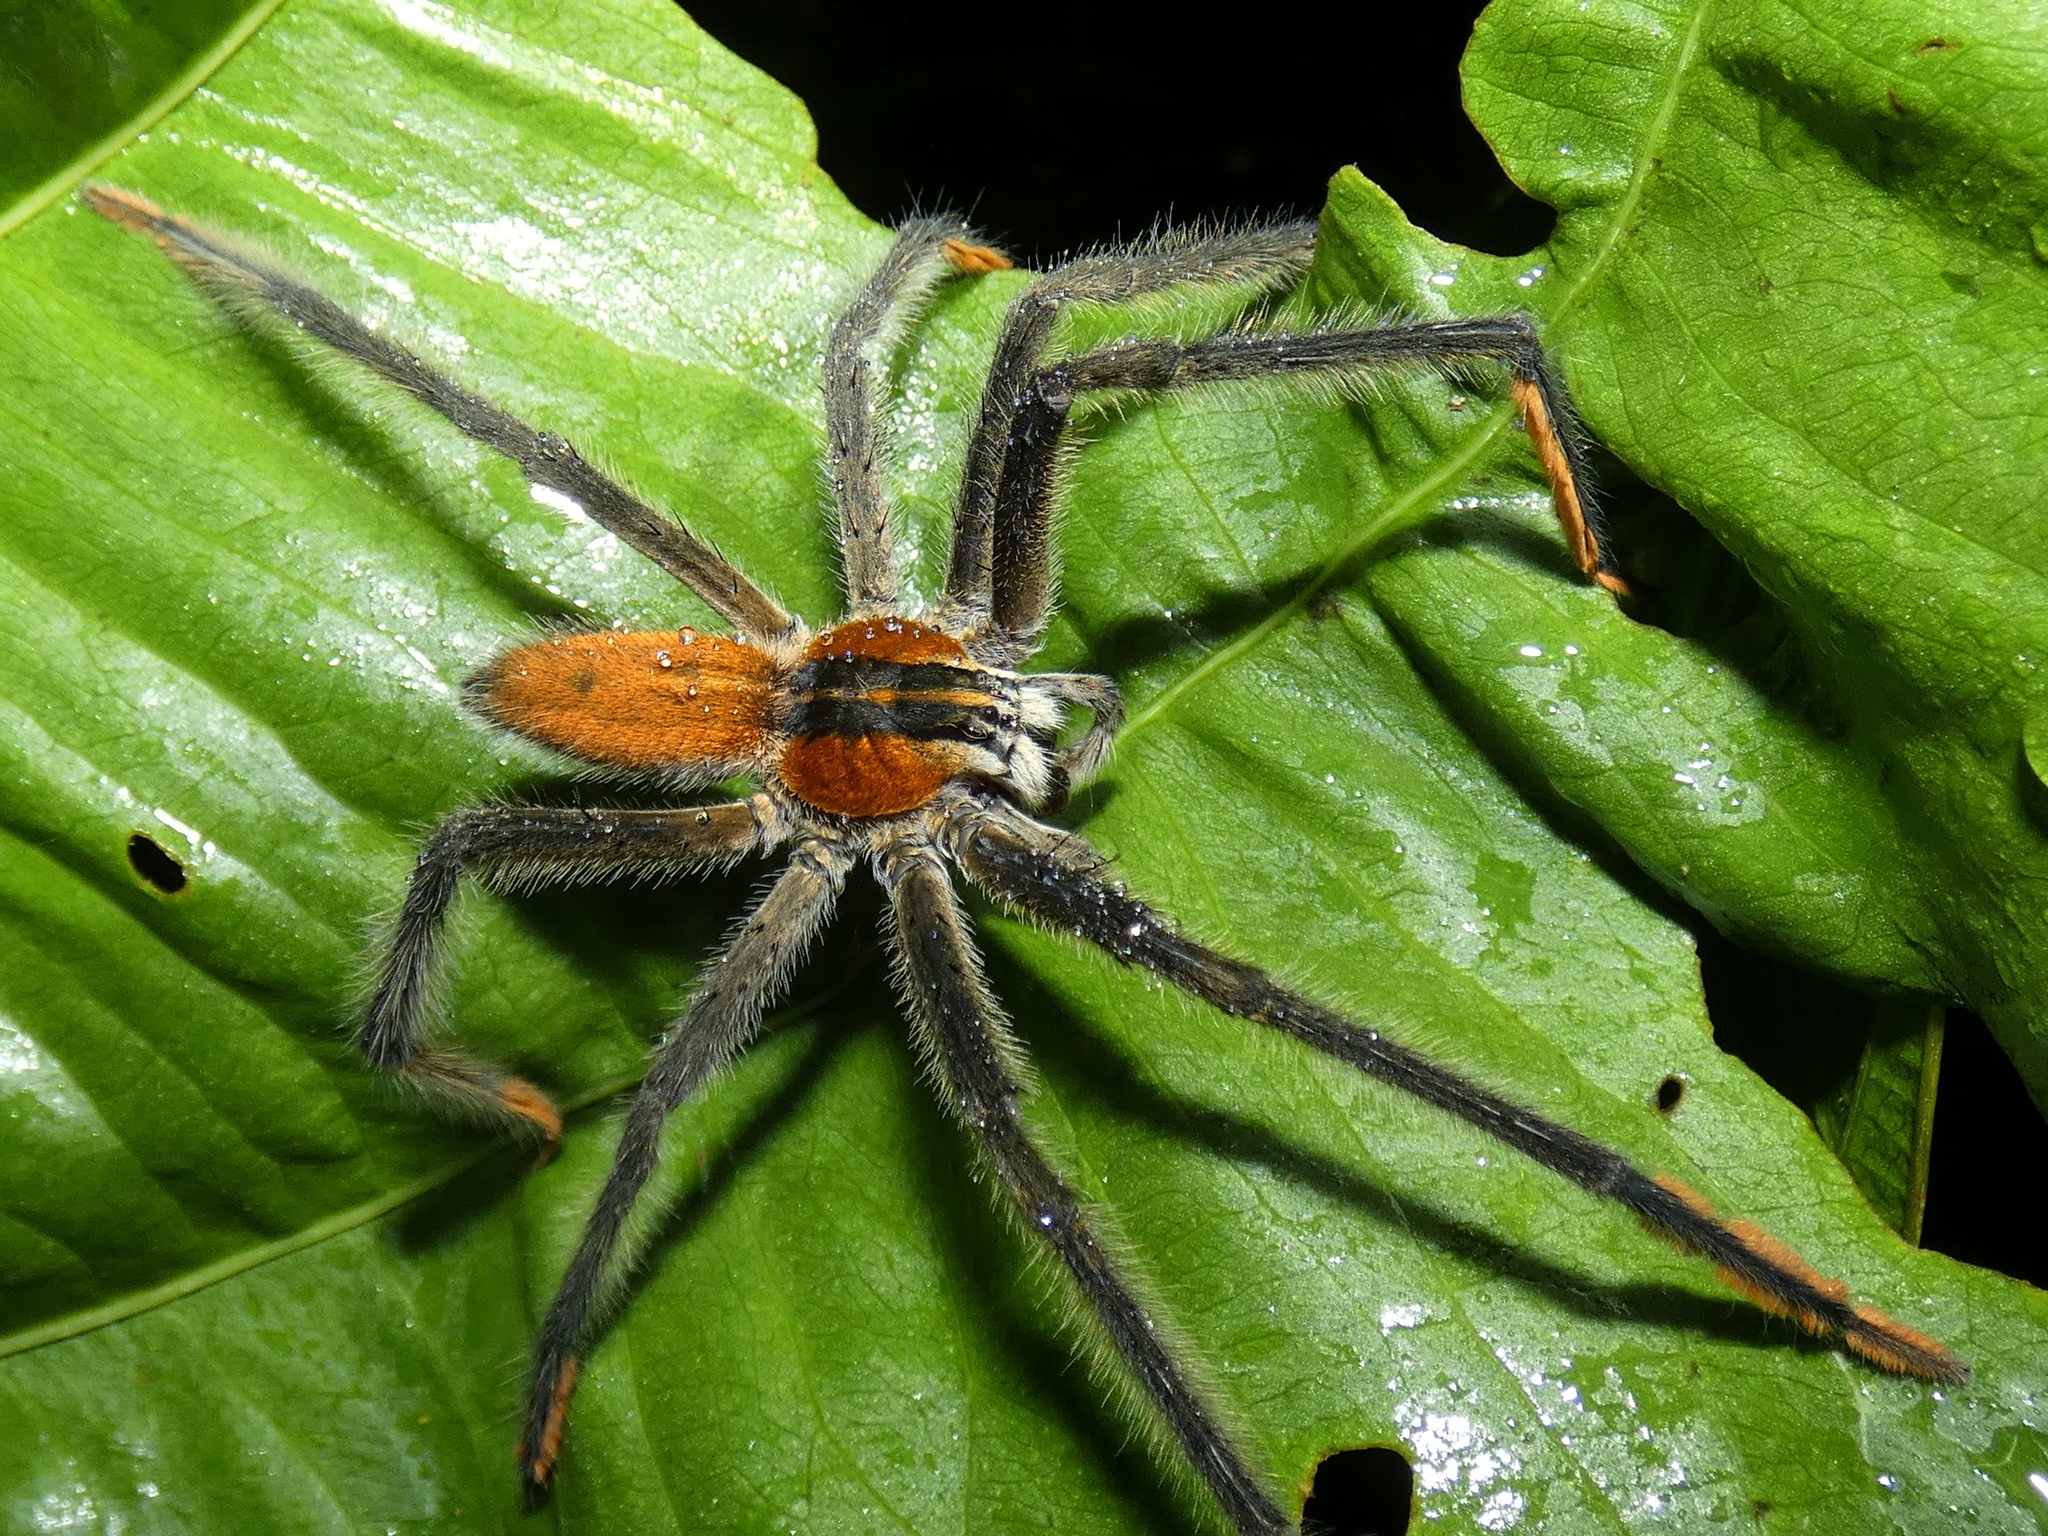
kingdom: Animalia
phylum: Arthropoda
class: Arachnida
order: Araneae
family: Trechaleidae
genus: Cupiennius
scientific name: Cupiennius getazi
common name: Wandering spiders
